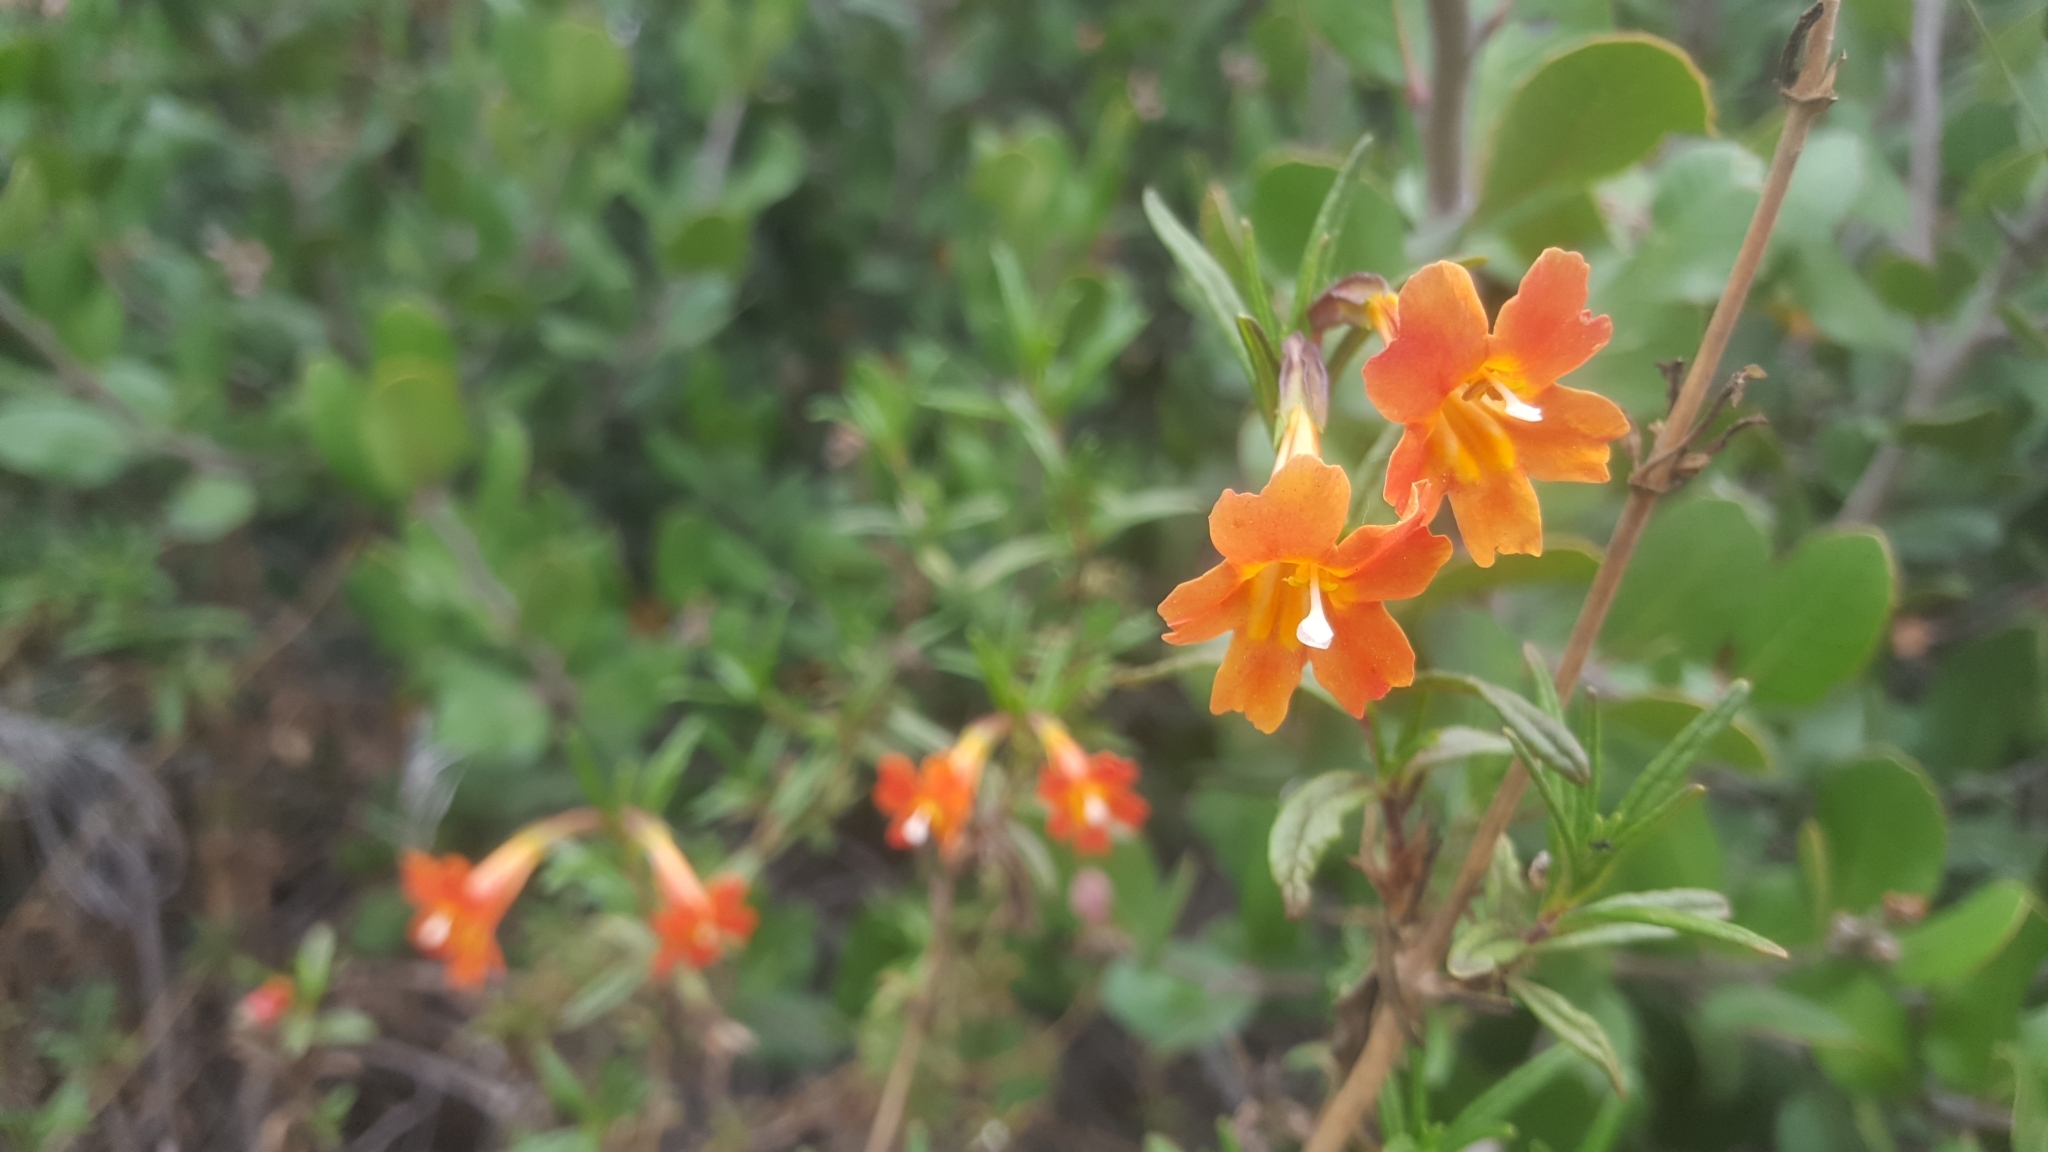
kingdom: Plantae
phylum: Tracheophyta
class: Magnoliopsida
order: Lamiales
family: Phrymaceae
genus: Diplacus
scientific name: Diplacus australis
